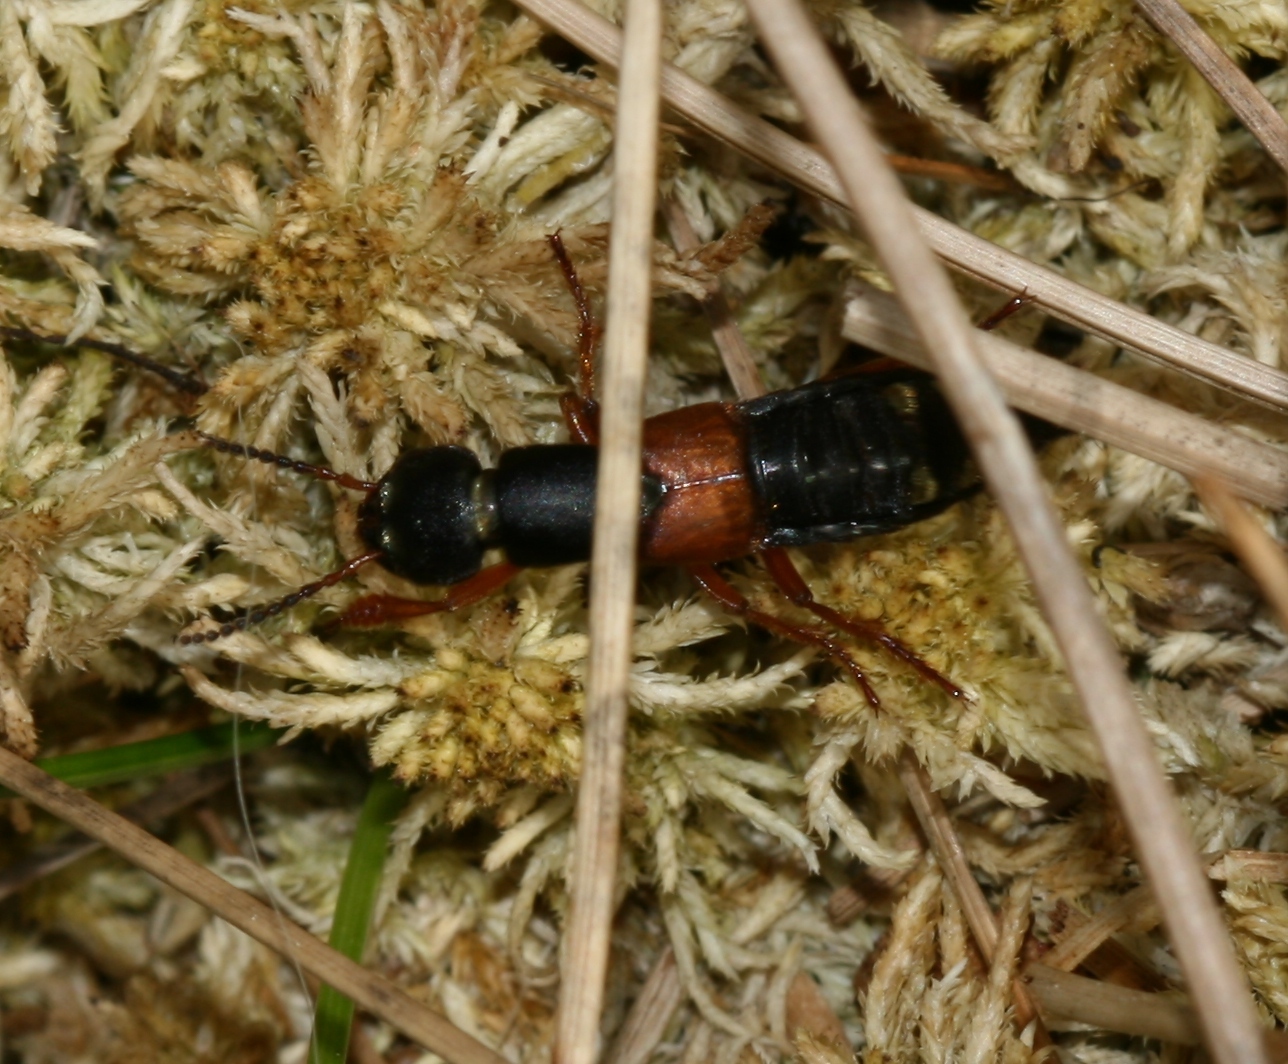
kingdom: Animalia
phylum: Arthropoda
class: Insecta
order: Coleoptera
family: Staphylinidae
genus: Staphylinus
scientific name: Staphylinus erythropterus
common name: Staph beetle
